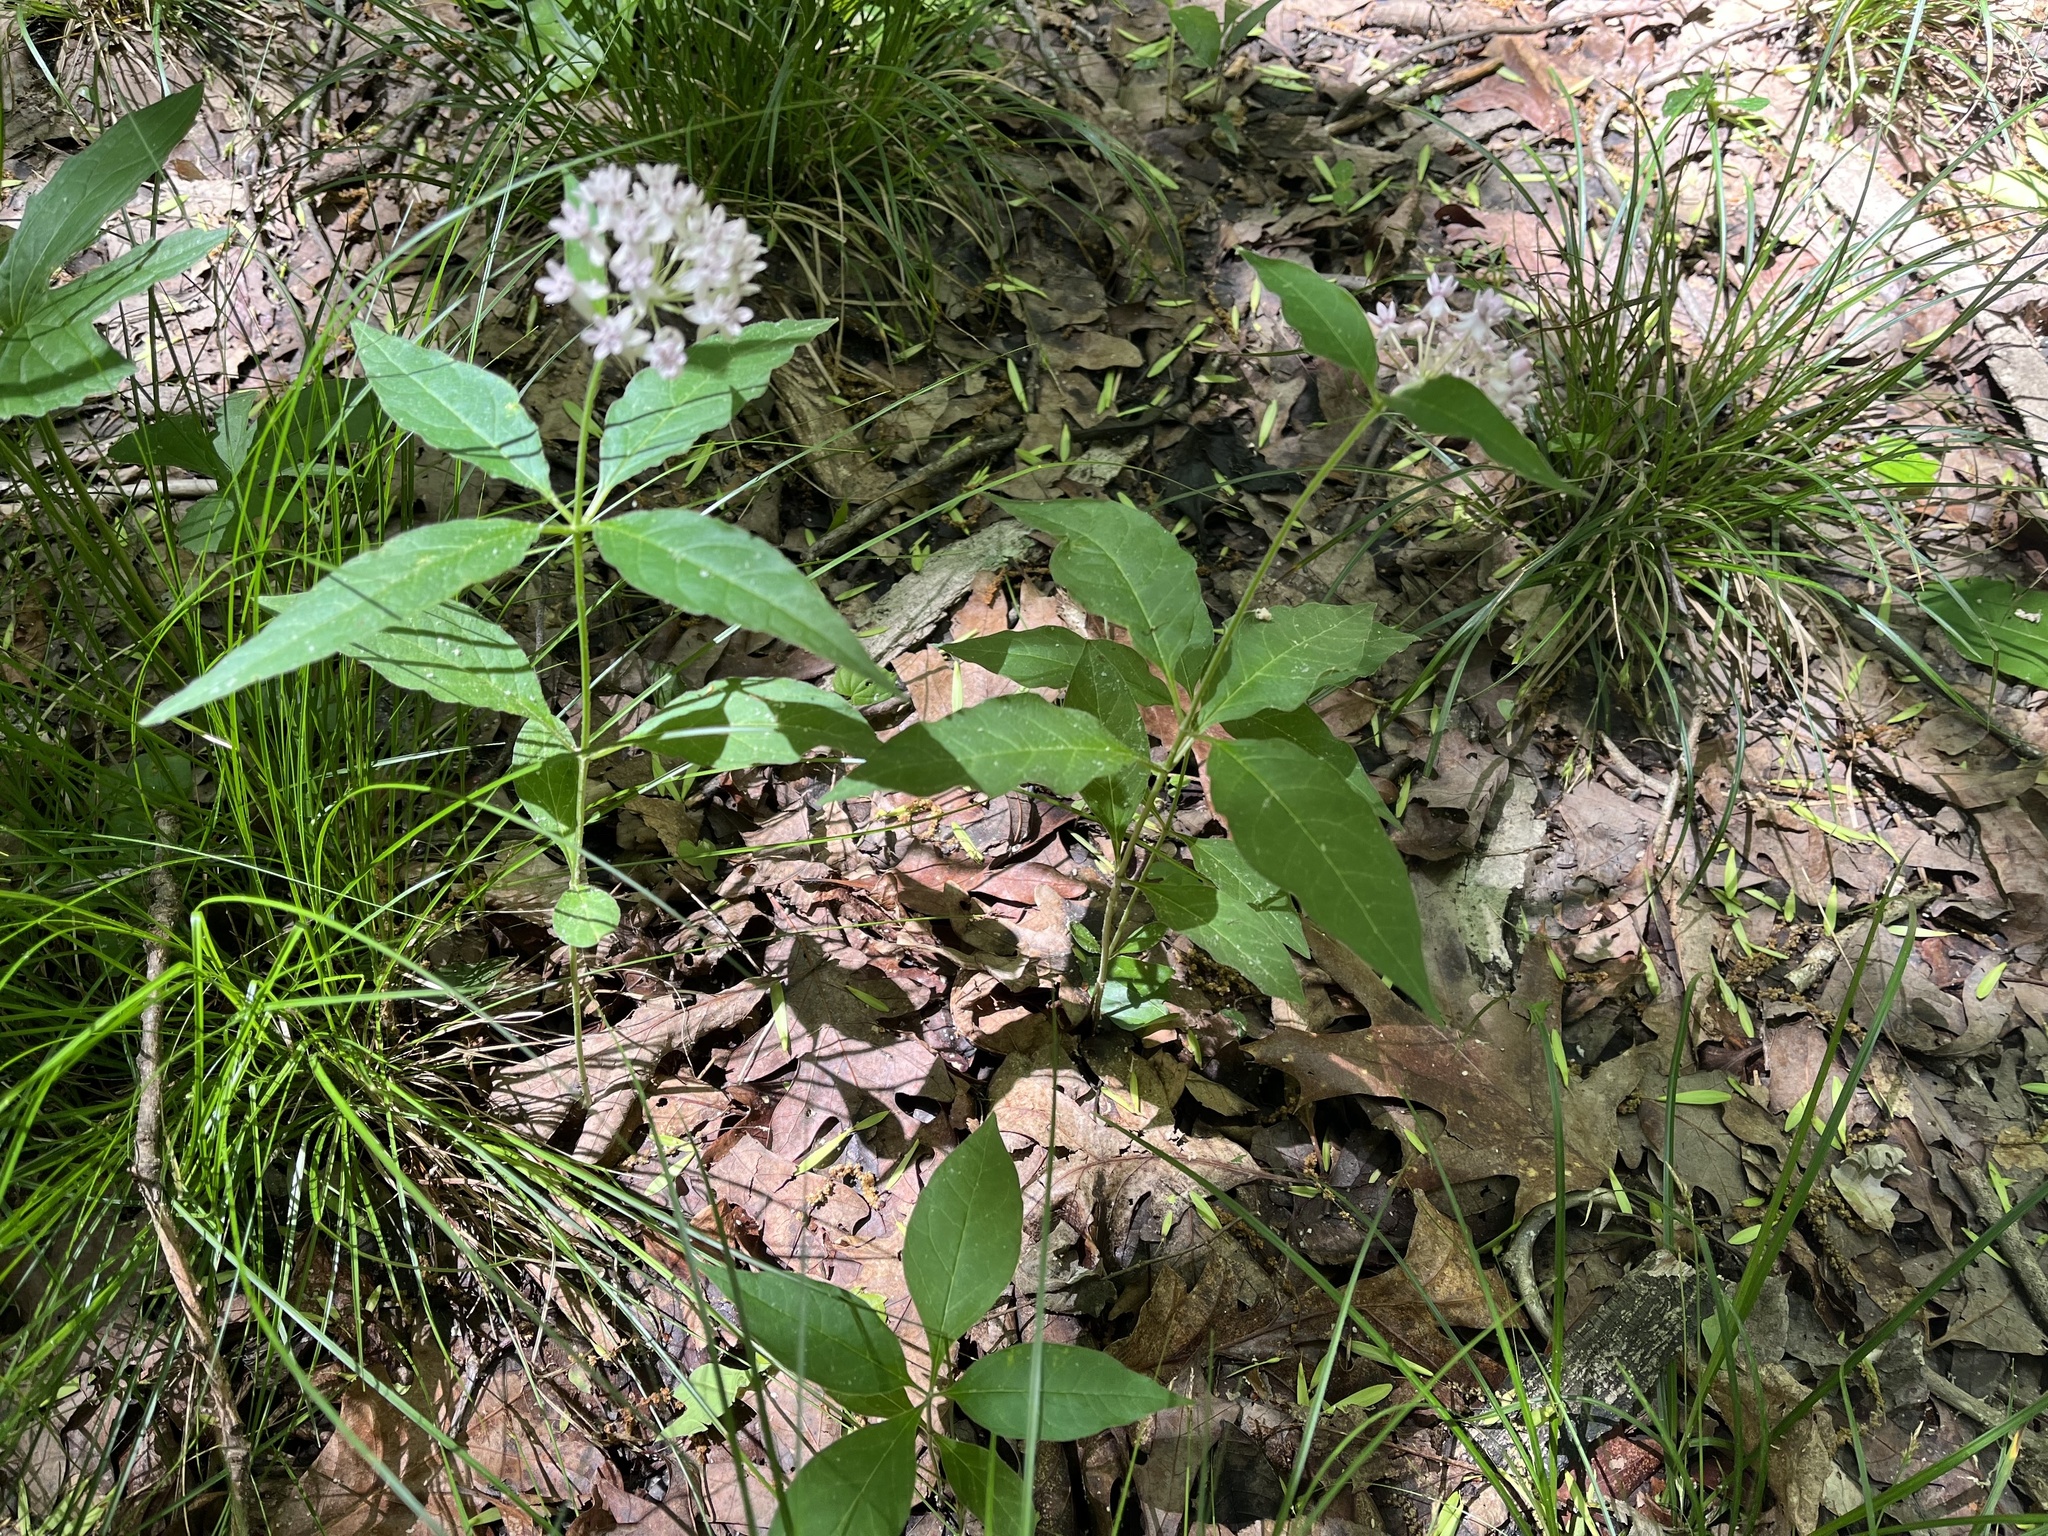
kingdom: Plantae
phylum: Tracheophyta
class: Magnoliopsida
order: Gentianales
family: Apocynaceae
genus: Asclepias
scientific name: Asclepias quadrifolia
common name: Whorled milkweed
